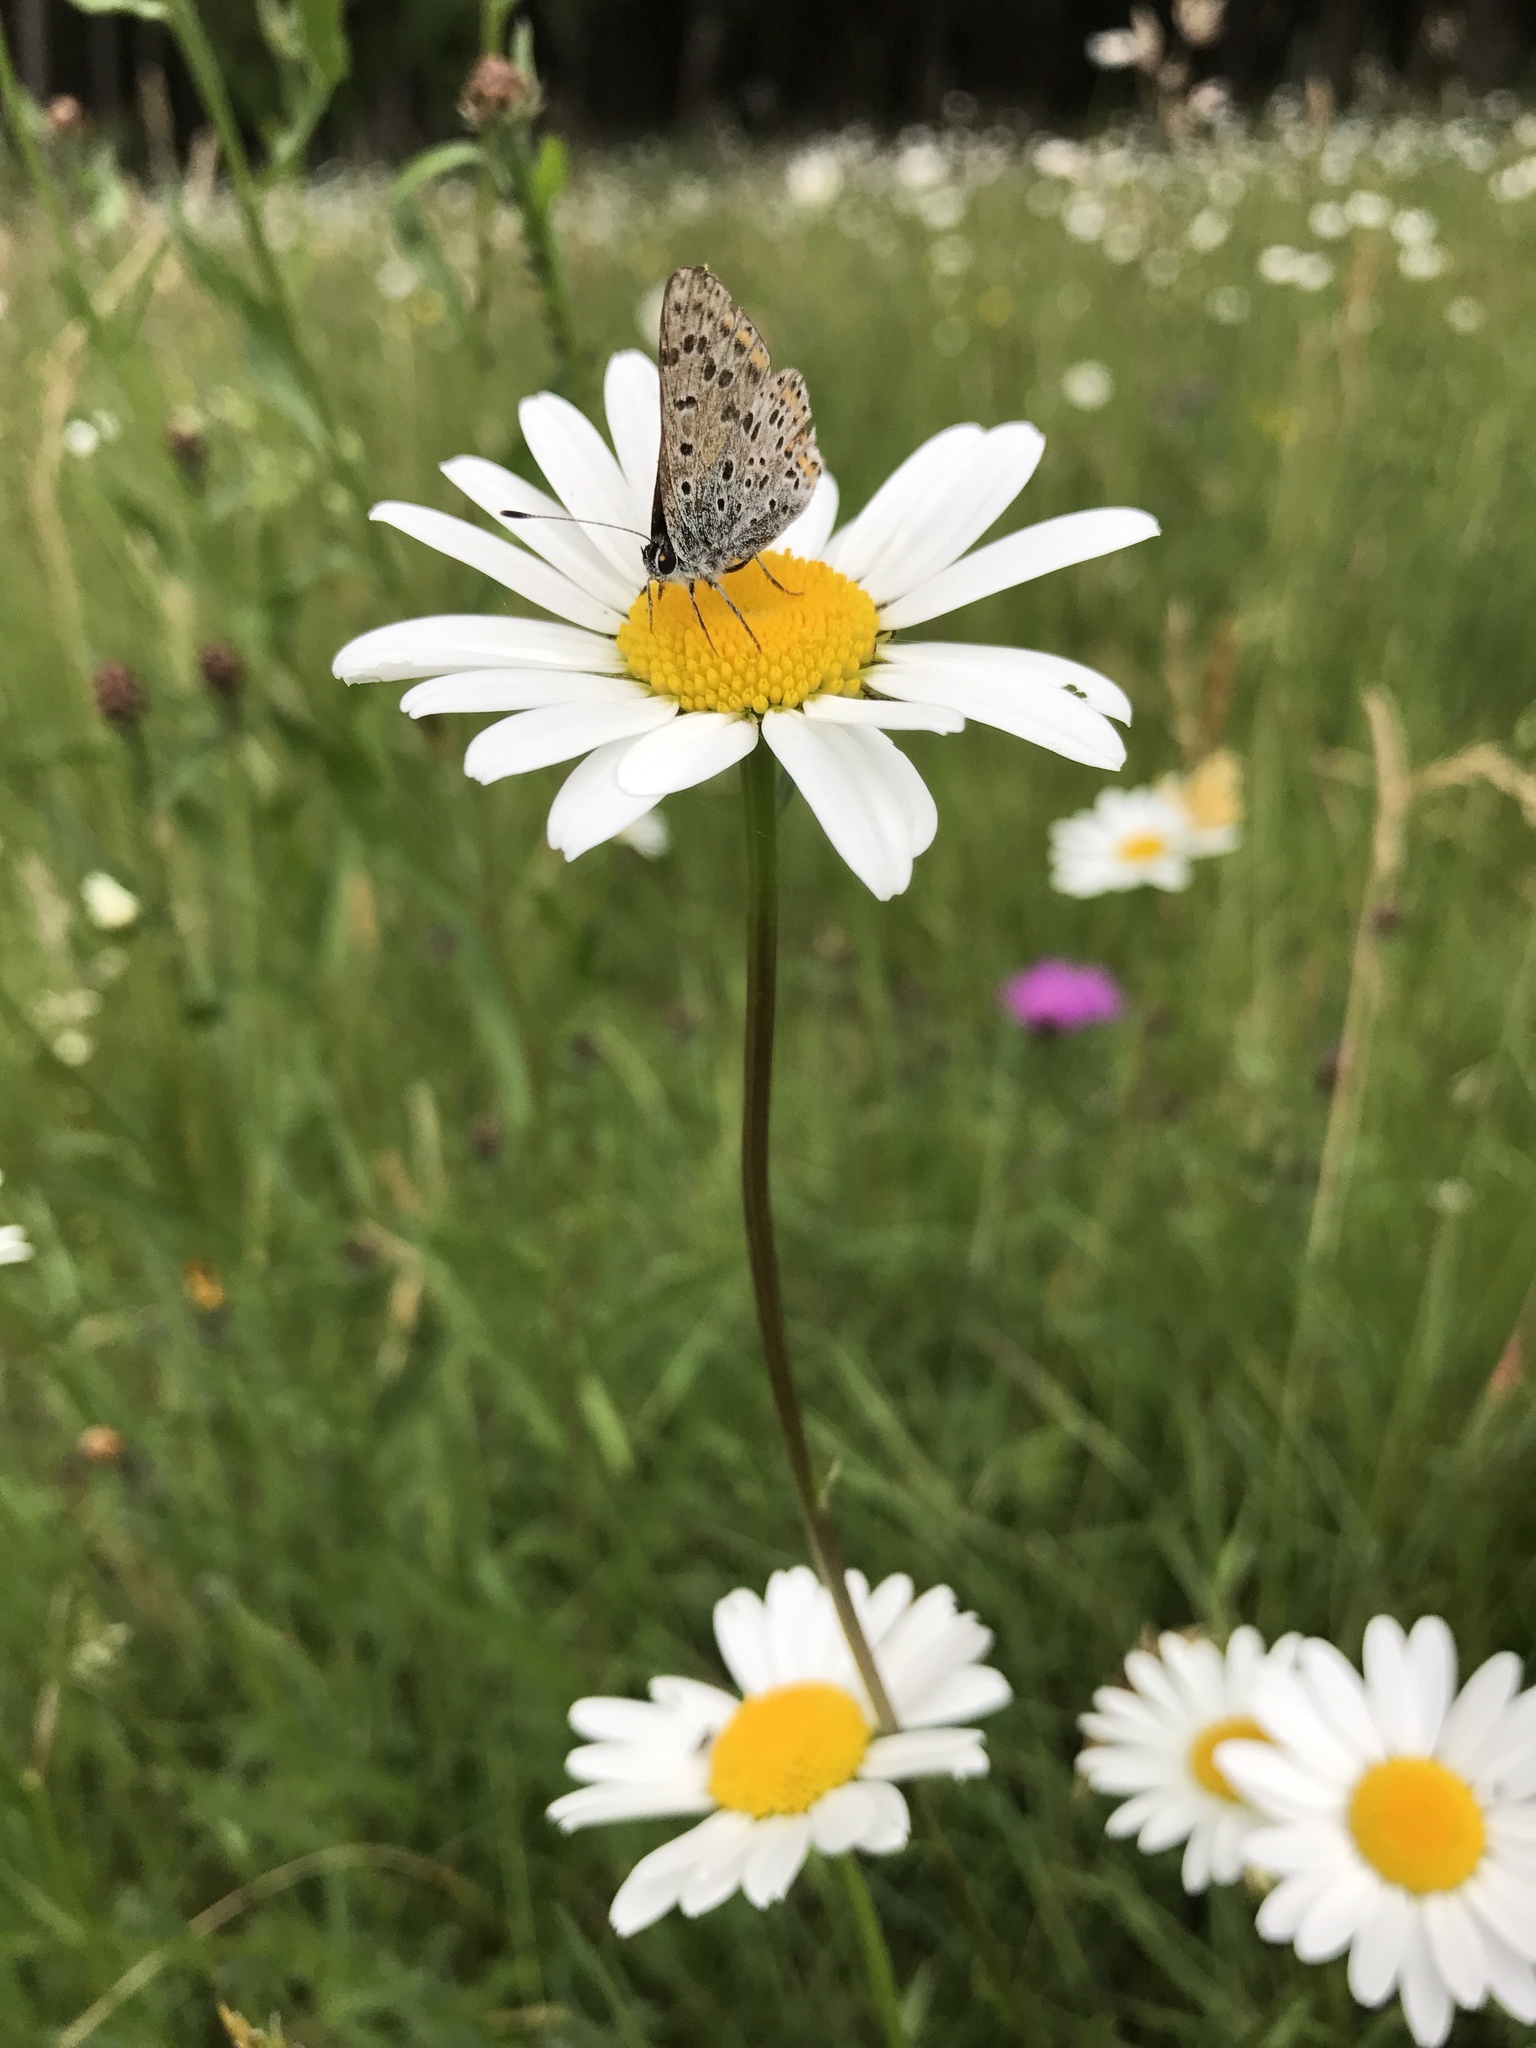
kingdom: Animalia
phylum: Arthropoda
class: Insecta
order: Lepidoptera
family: Lycaenidae
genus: Loweia
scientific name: Loweia tityrus
